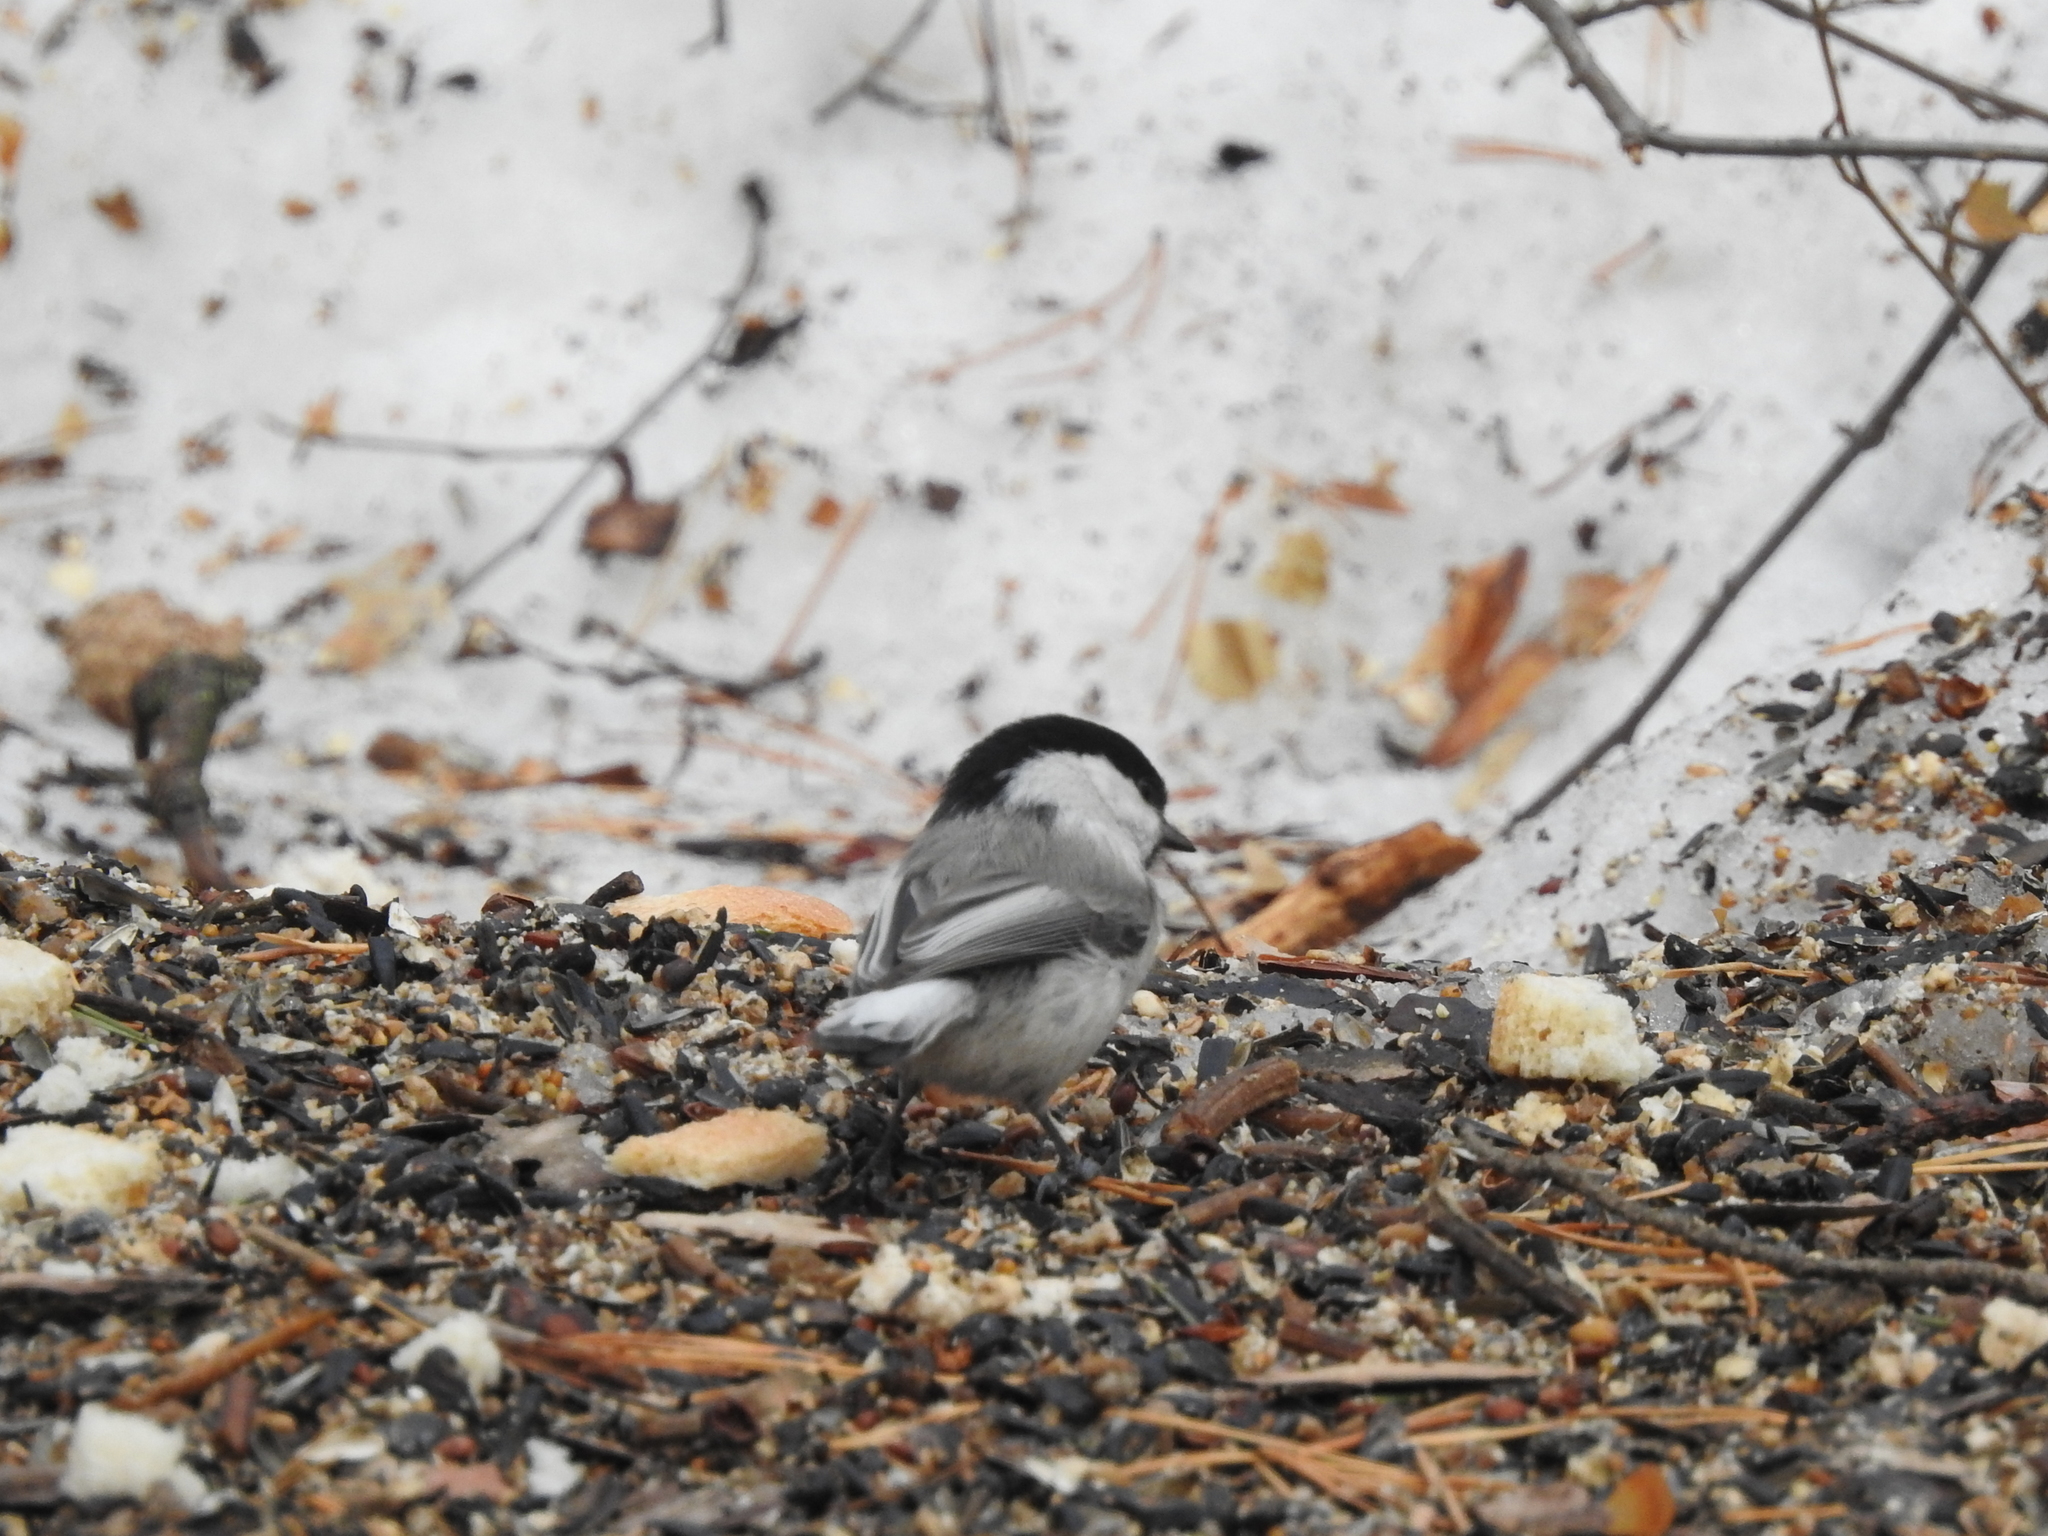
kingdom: Animalia
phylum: Chordata
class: Aves
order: Passeriformes
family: Paridae
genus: Poecile
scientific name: Poecile montanus
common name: Willow tit
